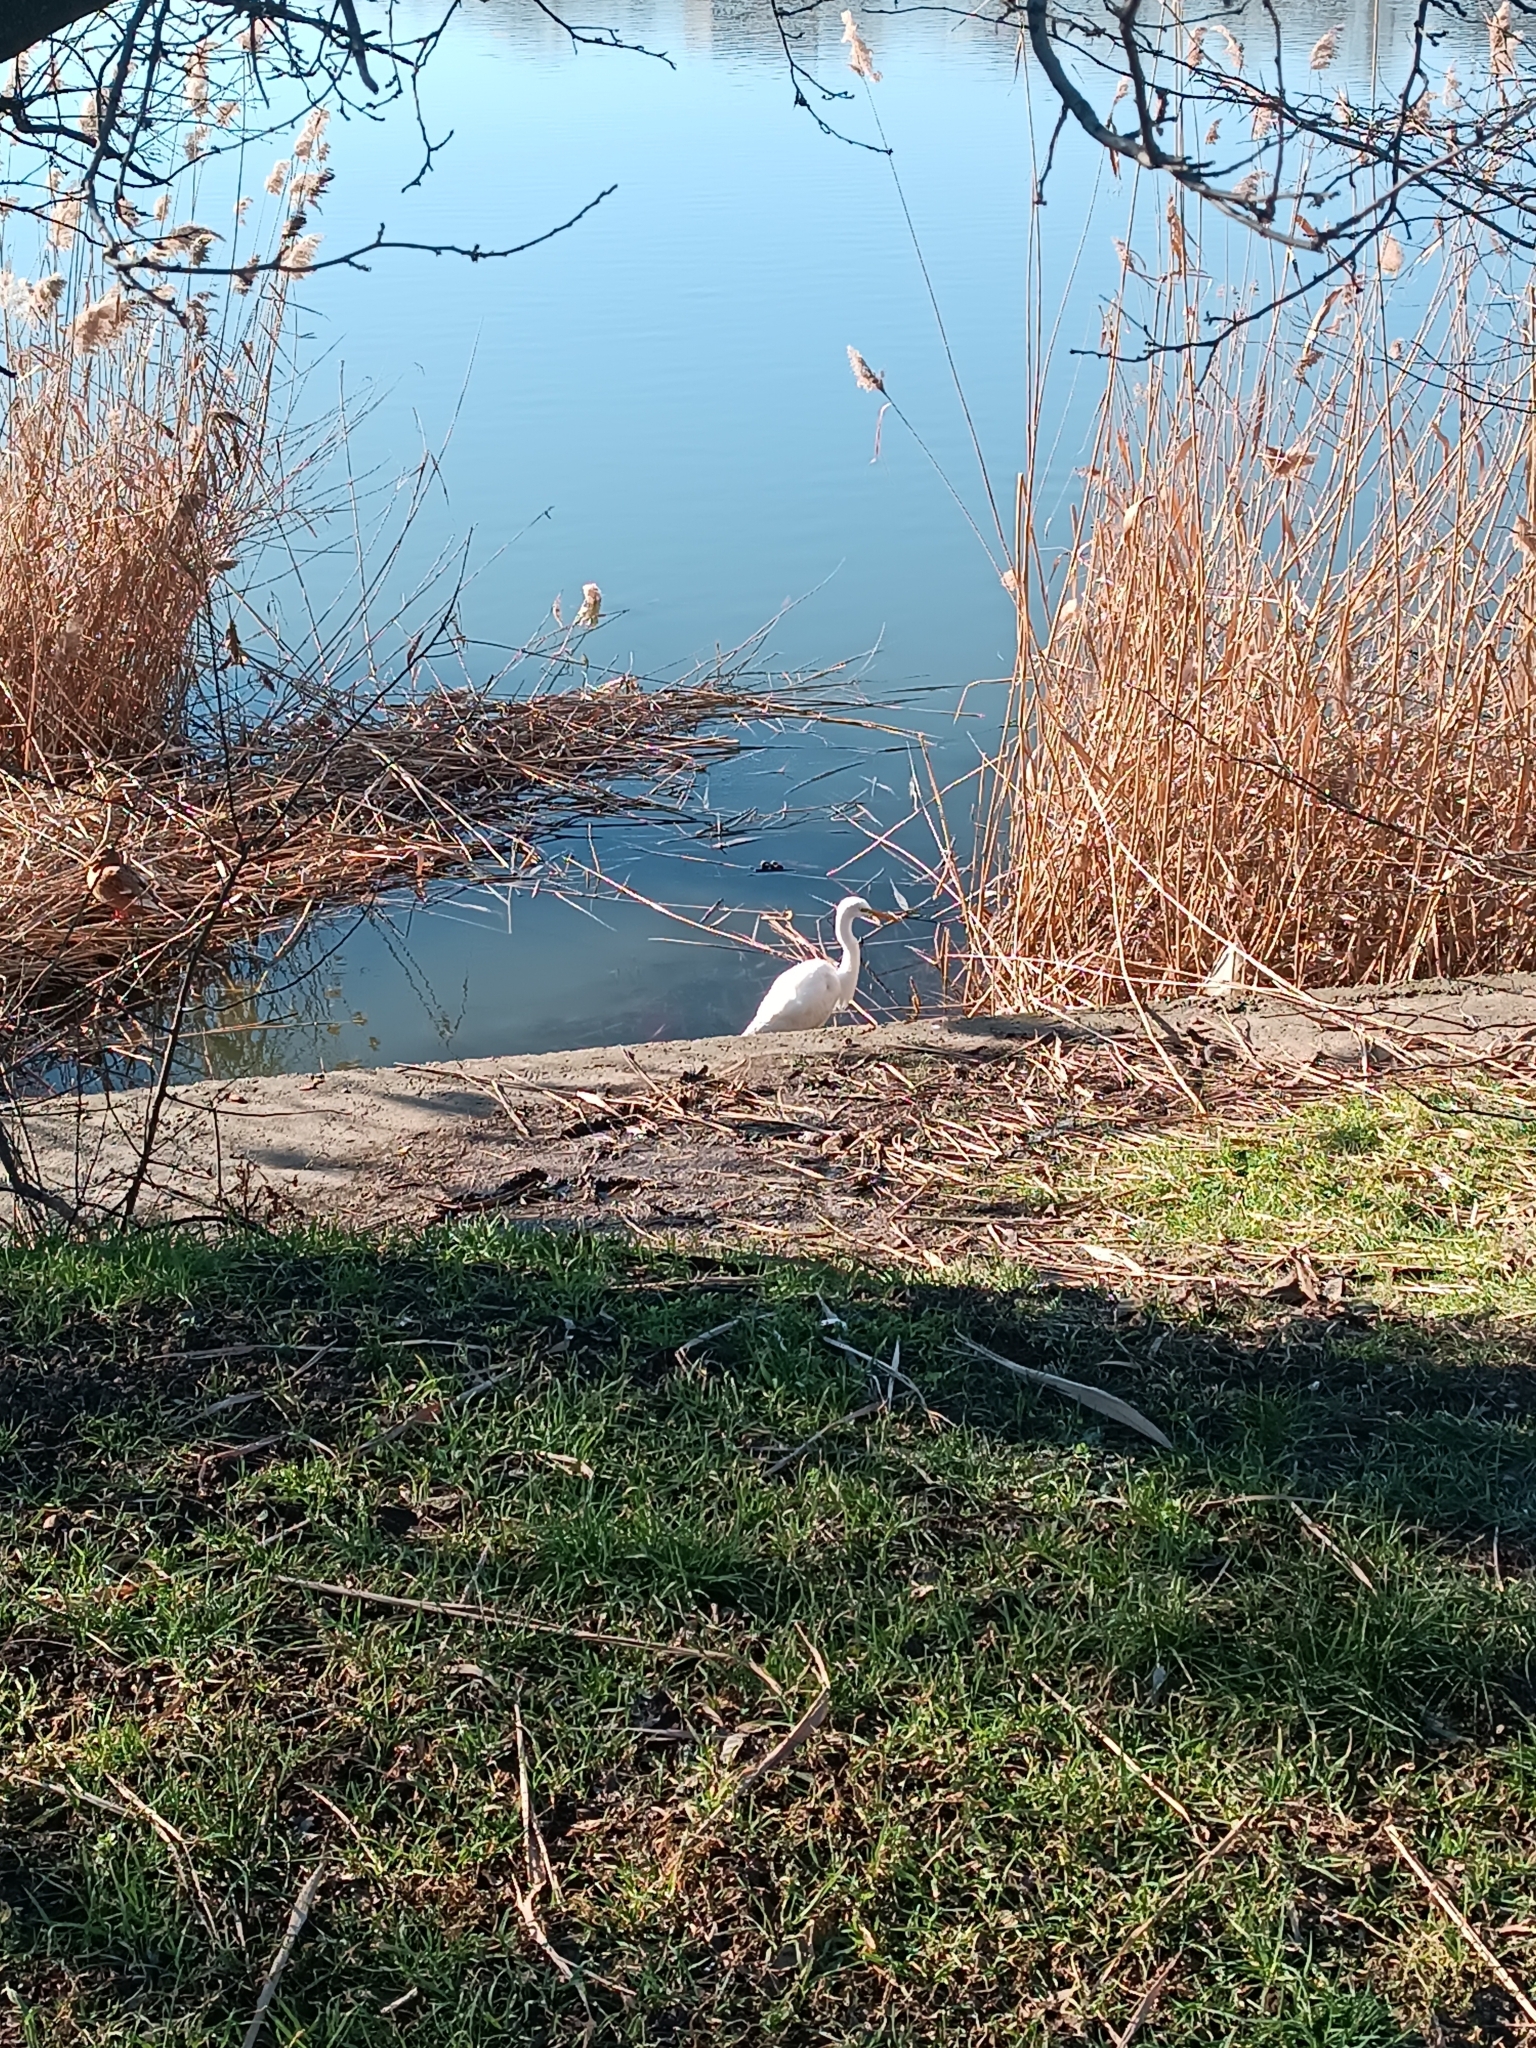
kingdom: Animalia
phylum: Chordata
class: Aves
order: Pelecaniformes
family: Ardeidae
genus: Ardea
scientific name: Ardea alba
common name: Great egret
